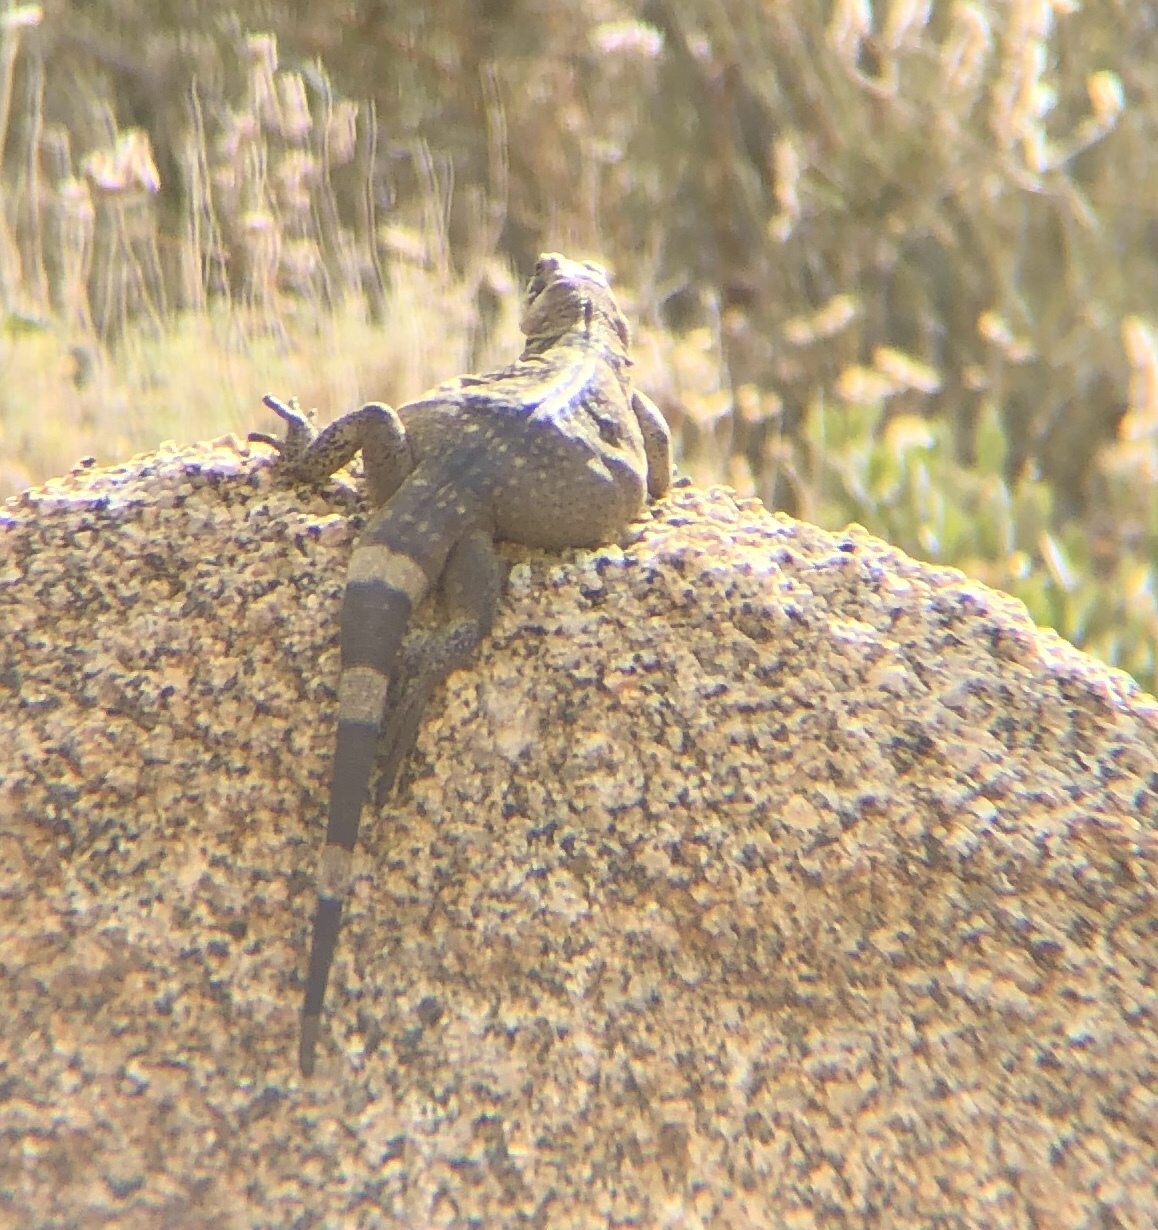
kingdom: Animalia
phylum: Chordata
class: Squamata
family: Iguanidae
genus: Sauromalus
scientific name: Sauromalus ater
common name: Northern chuckwalla
